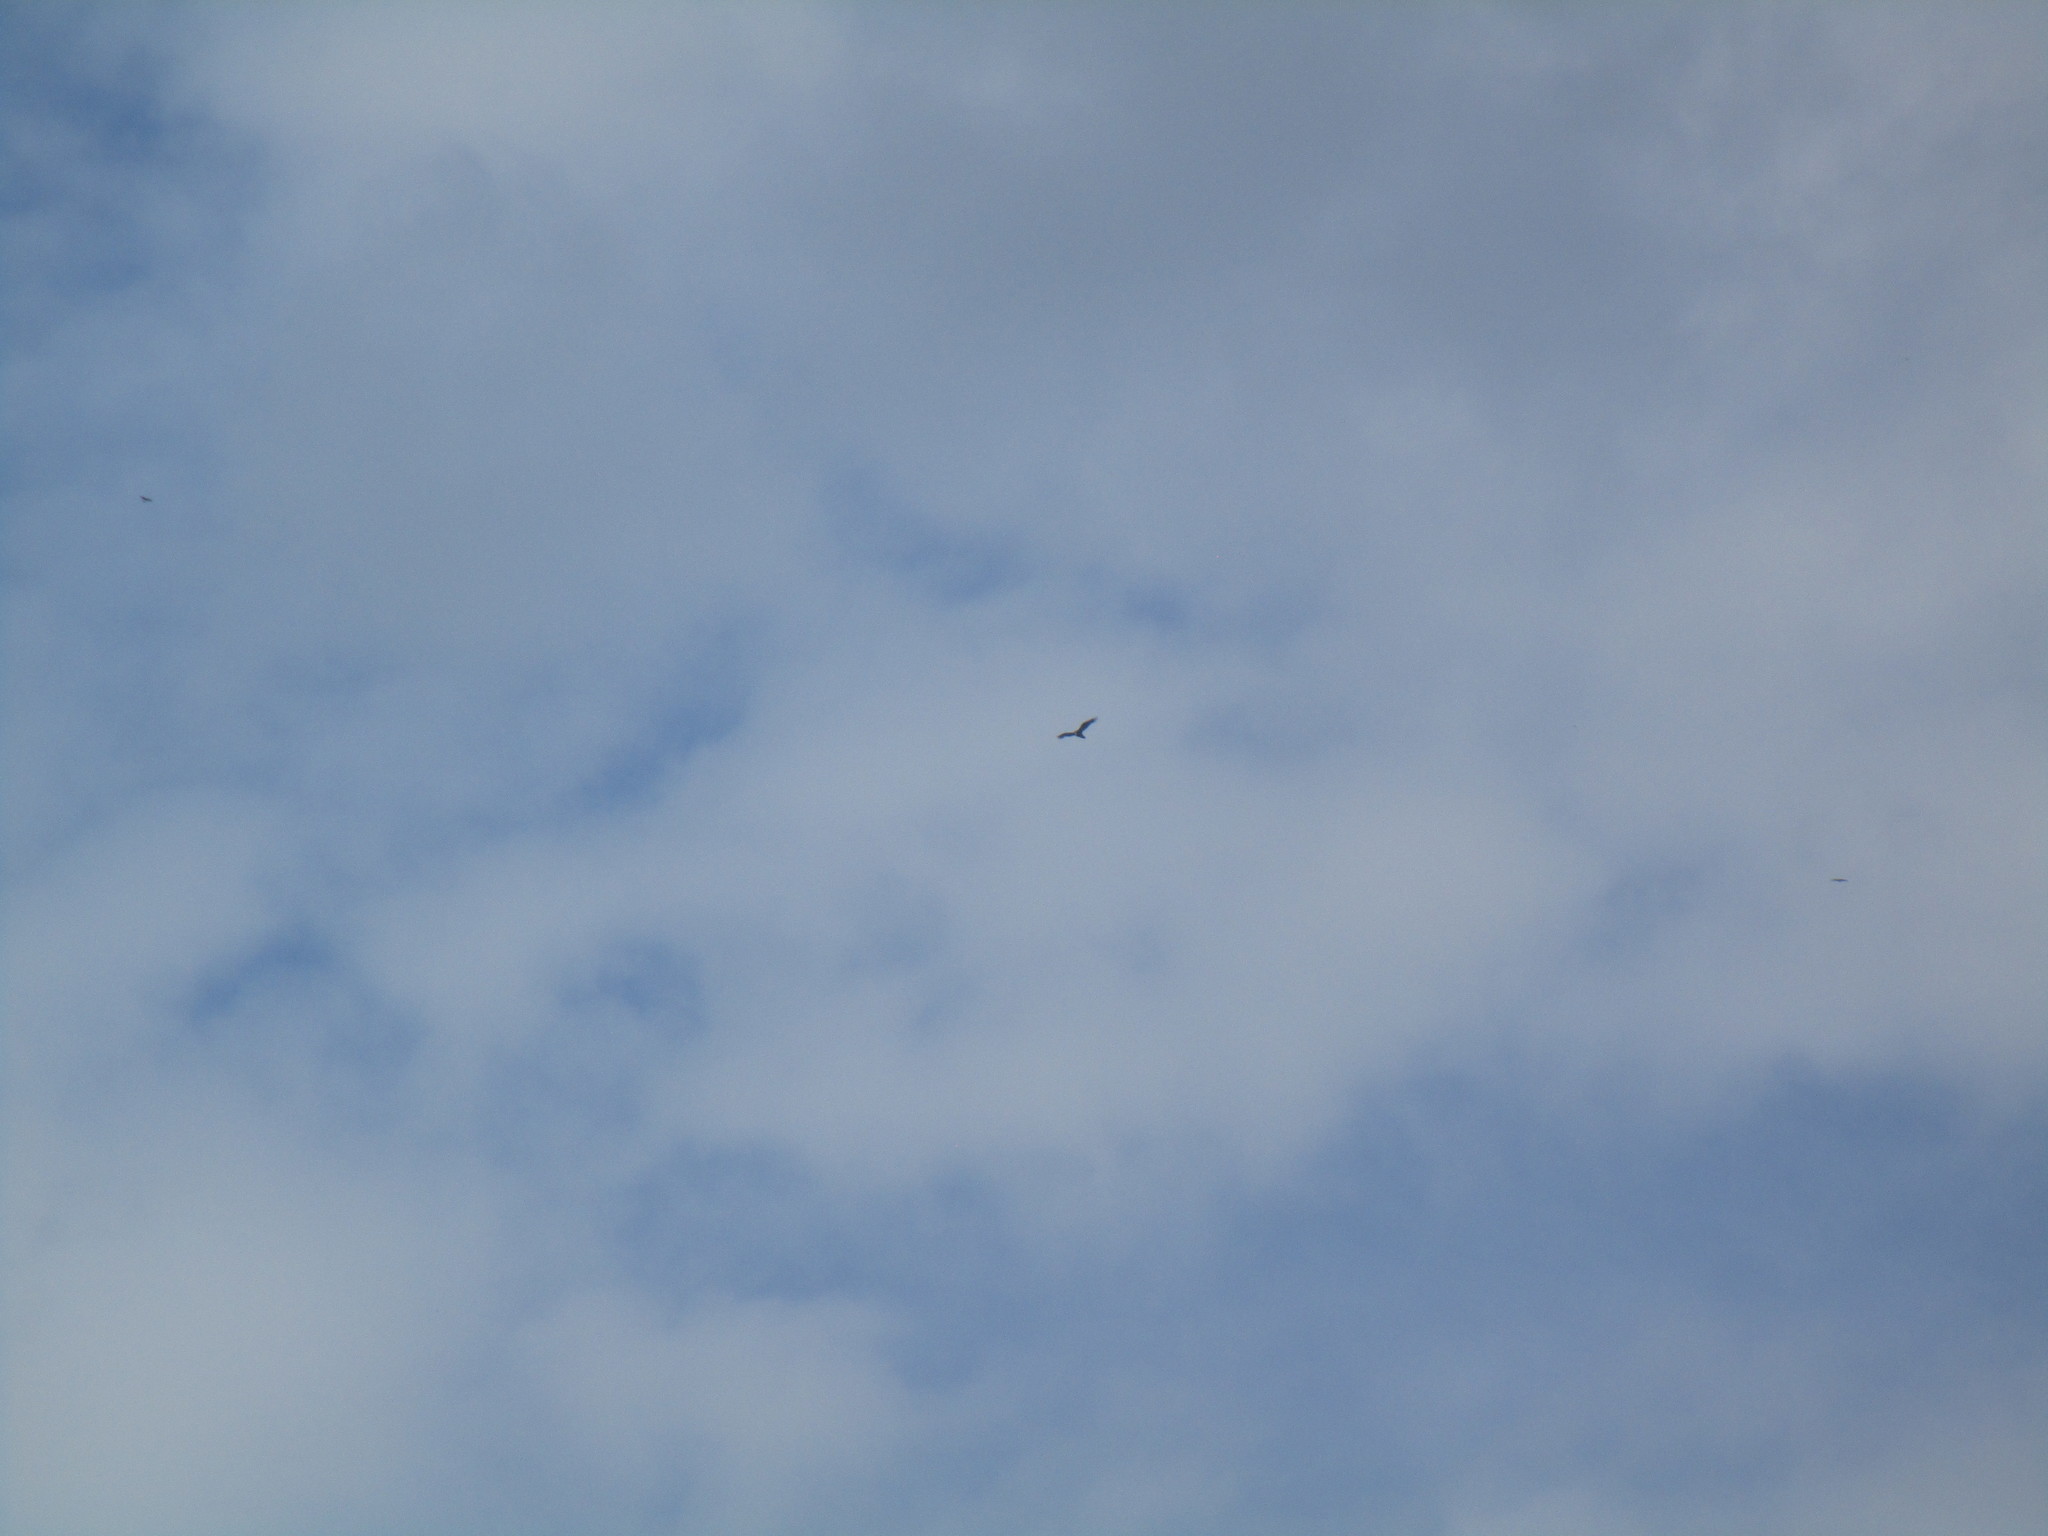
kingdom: Animalia
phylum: Chordata
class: Aves
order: Accipitriformes
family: Cathartidae
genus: Cathartes
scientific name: Cathartes aura
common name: Turkey vulture
